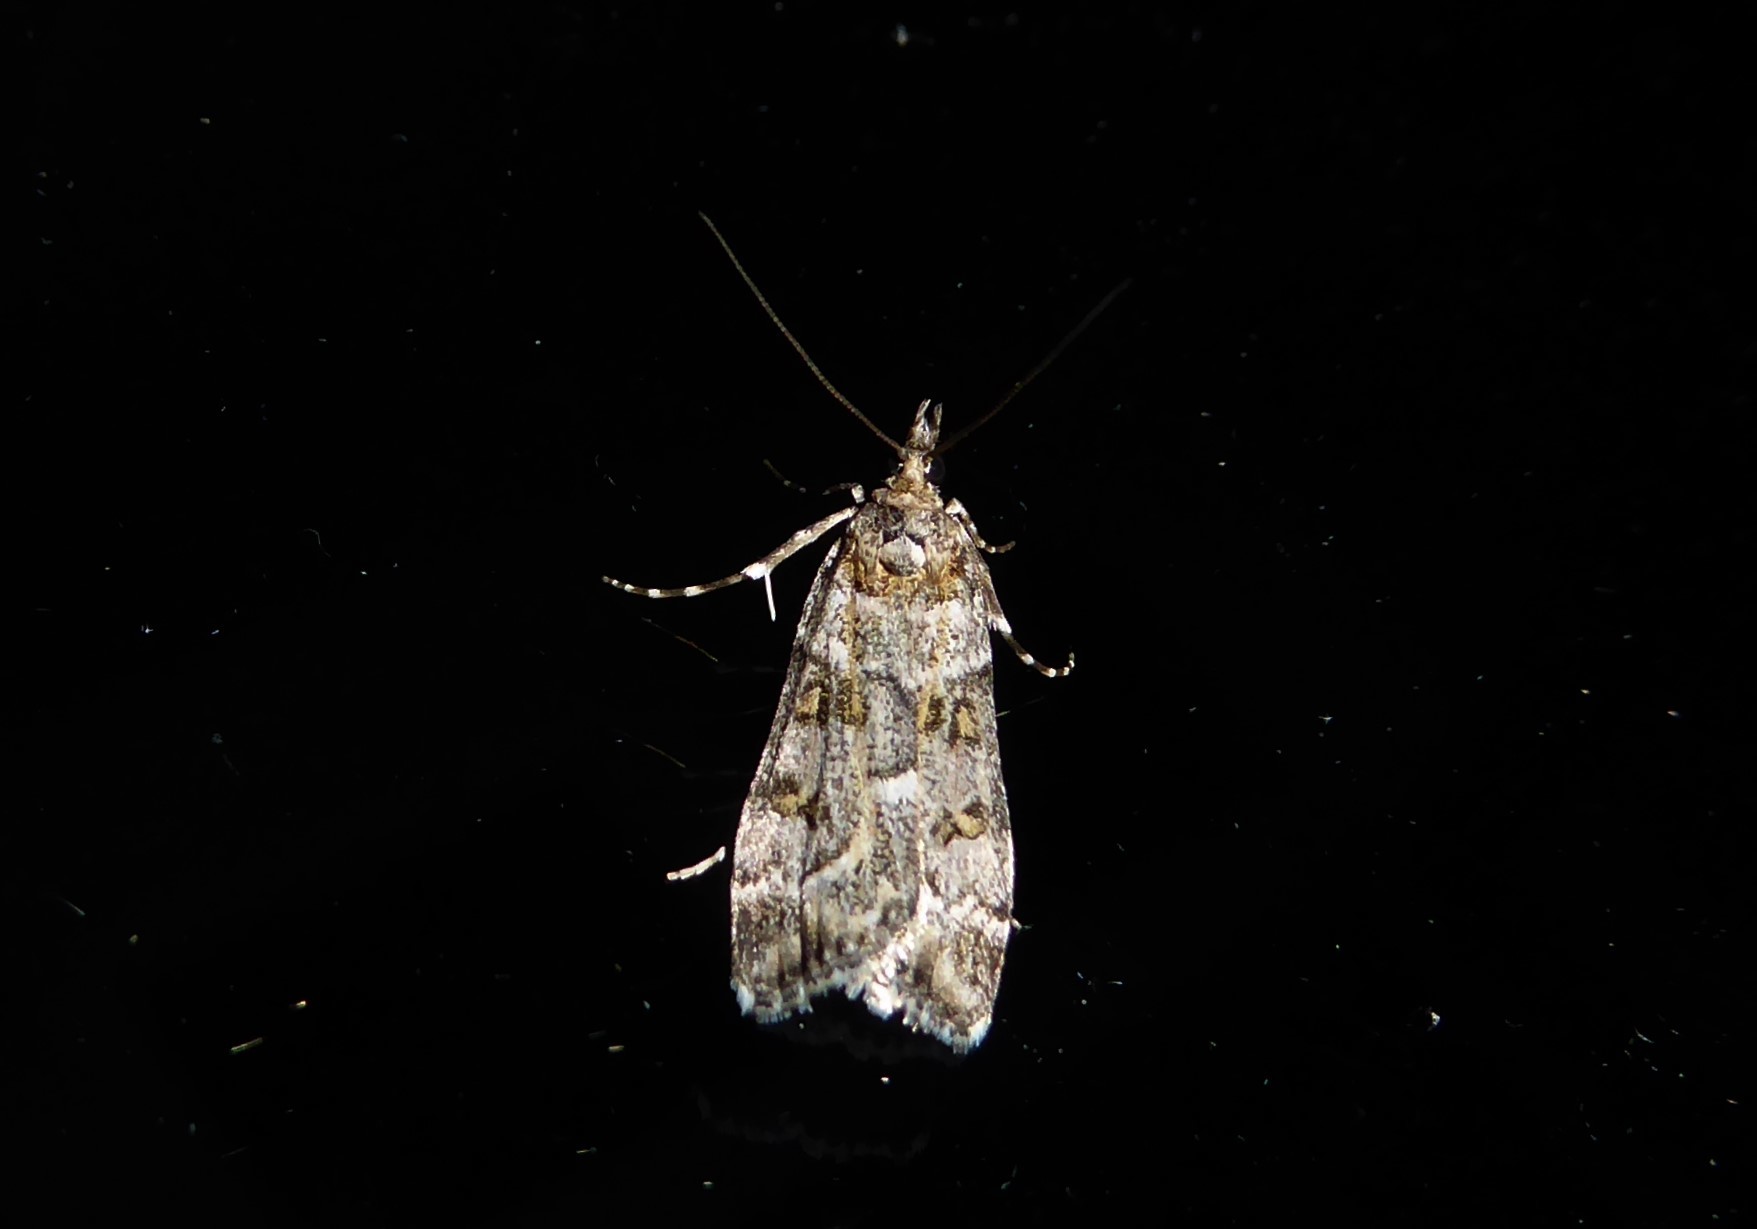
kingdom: Animalia
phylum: Arthropoda
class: Insecta
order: Lepidoptera
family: Crambidae
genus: Eudonia
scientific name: Eudonia diphtheralis
